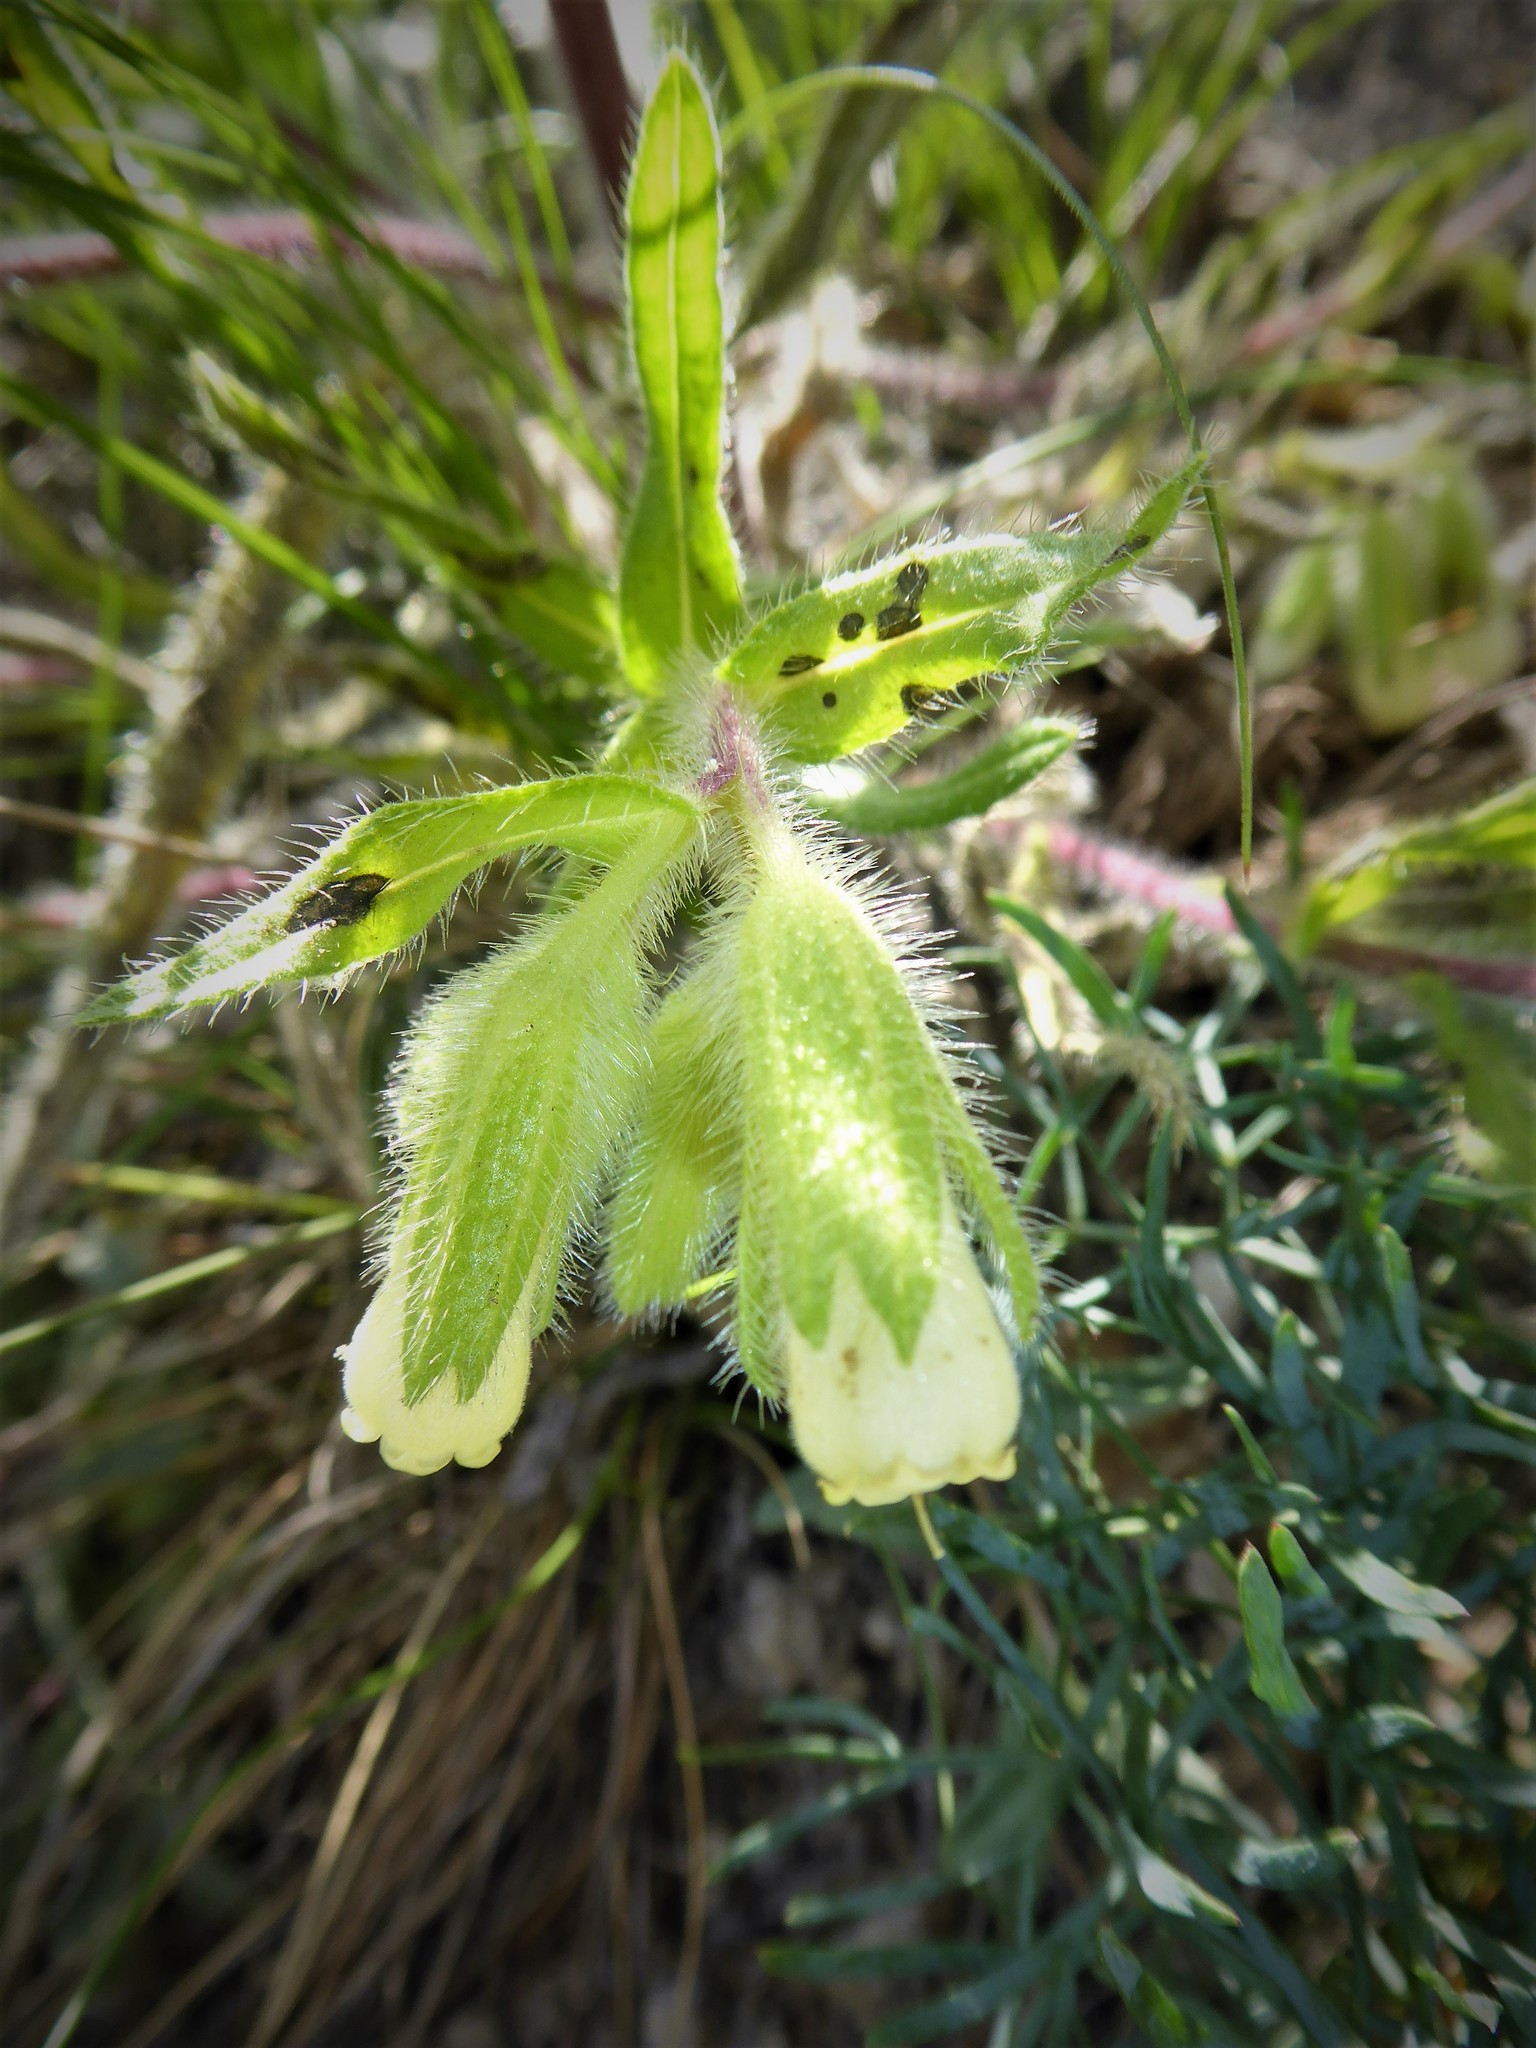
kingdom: Plantae
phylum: Tracheophyta
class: Magnoliopsida
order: Boraginales
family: Boraginaceae
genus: Onosma
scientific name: Onosma visianii
